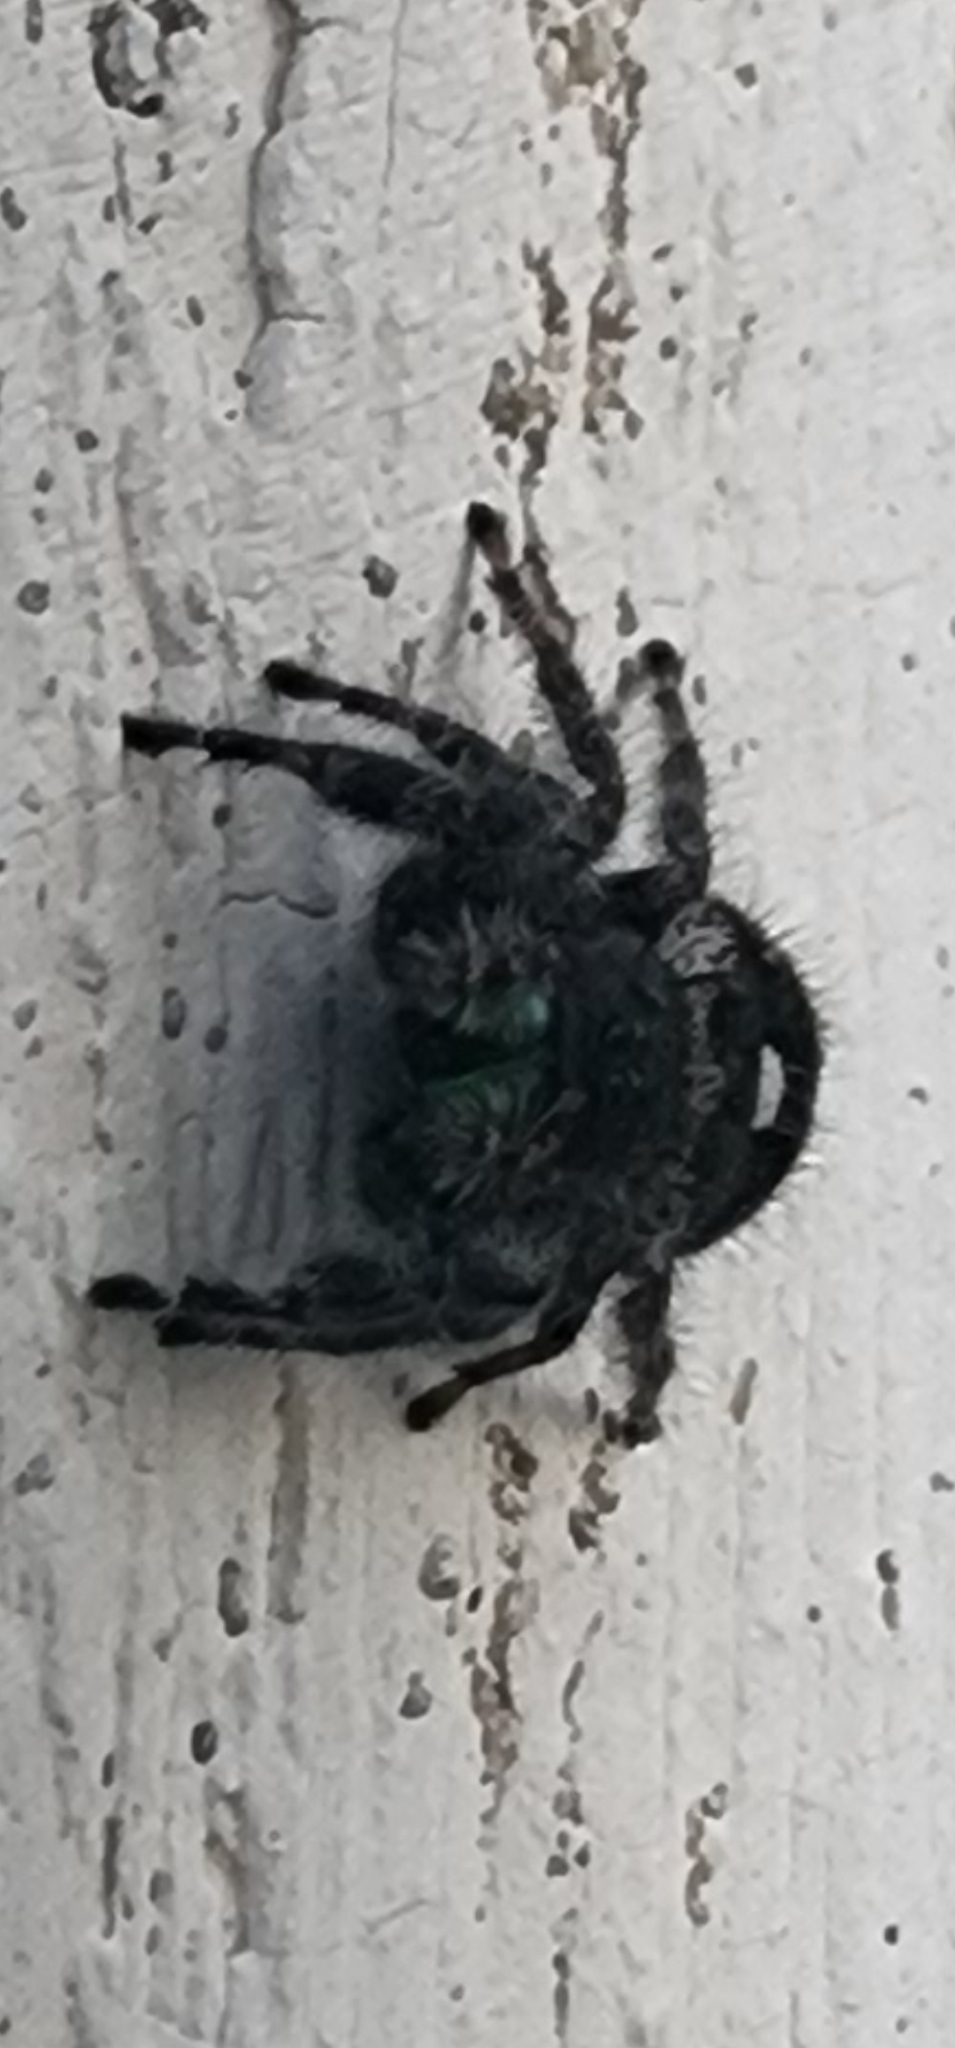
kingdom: Animalia
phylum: Arthropoda
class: Arachnida
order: Araneae
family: Salticidae
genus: Phidippus
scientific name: Phidippus audax
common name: Bold jumper
